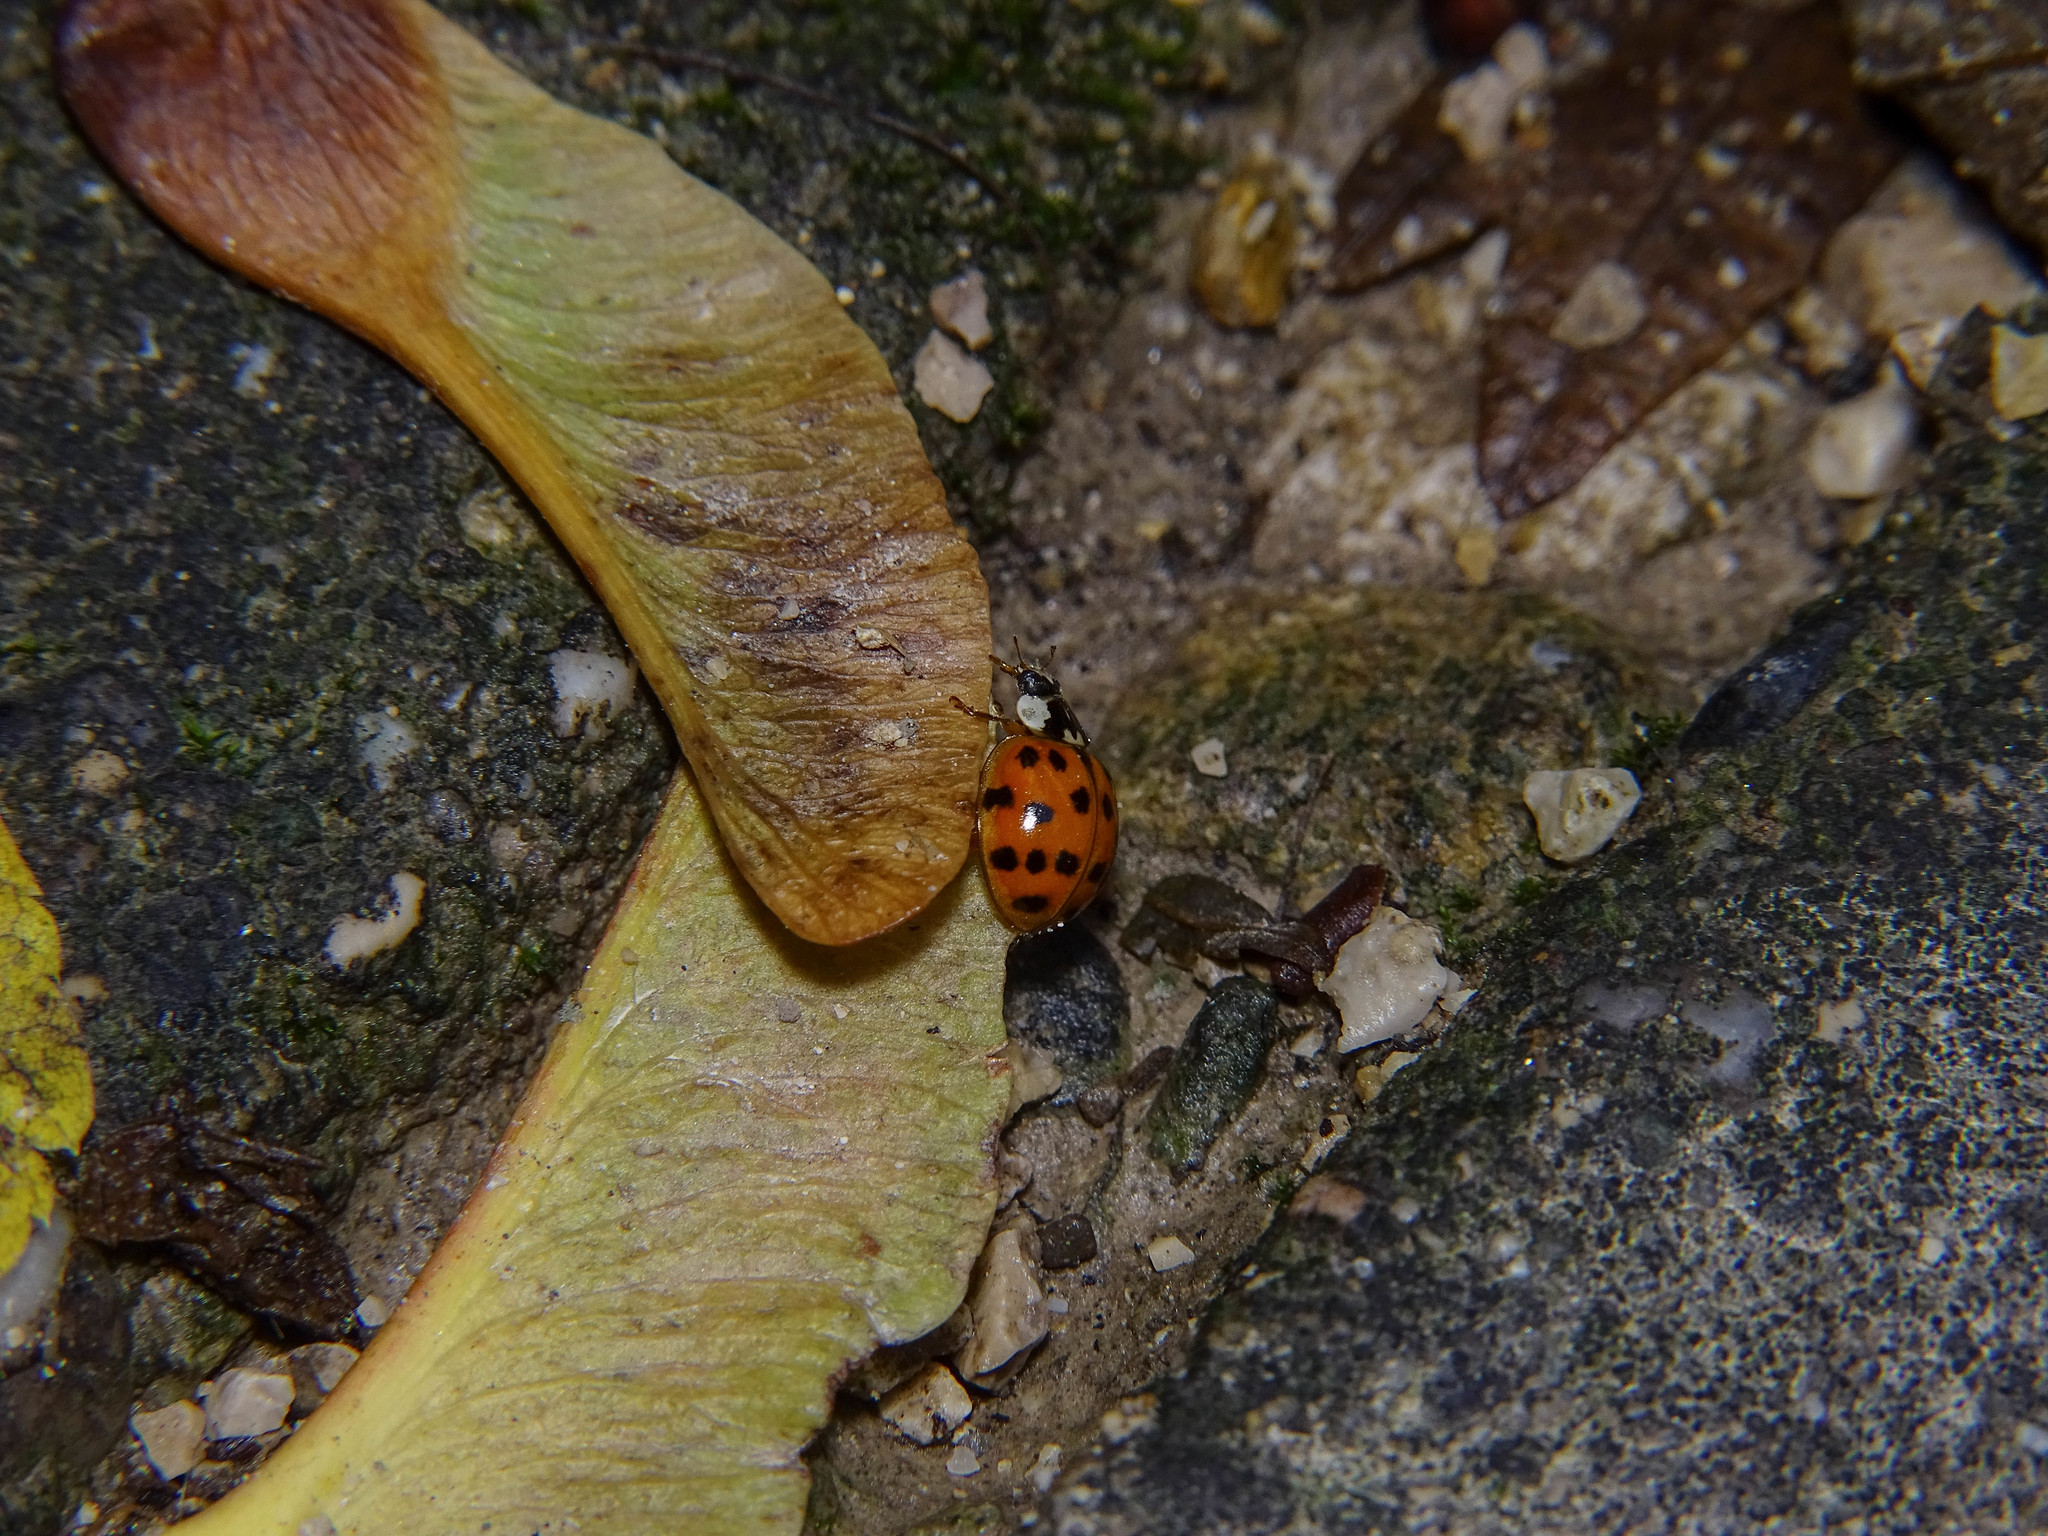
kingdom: Animalia
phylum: Arthropoda
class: Insecta
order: Coleoptera
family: Coccinellidae
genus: Harmonia
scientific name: Harmonia axyridis
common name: Harlequin ladybird
